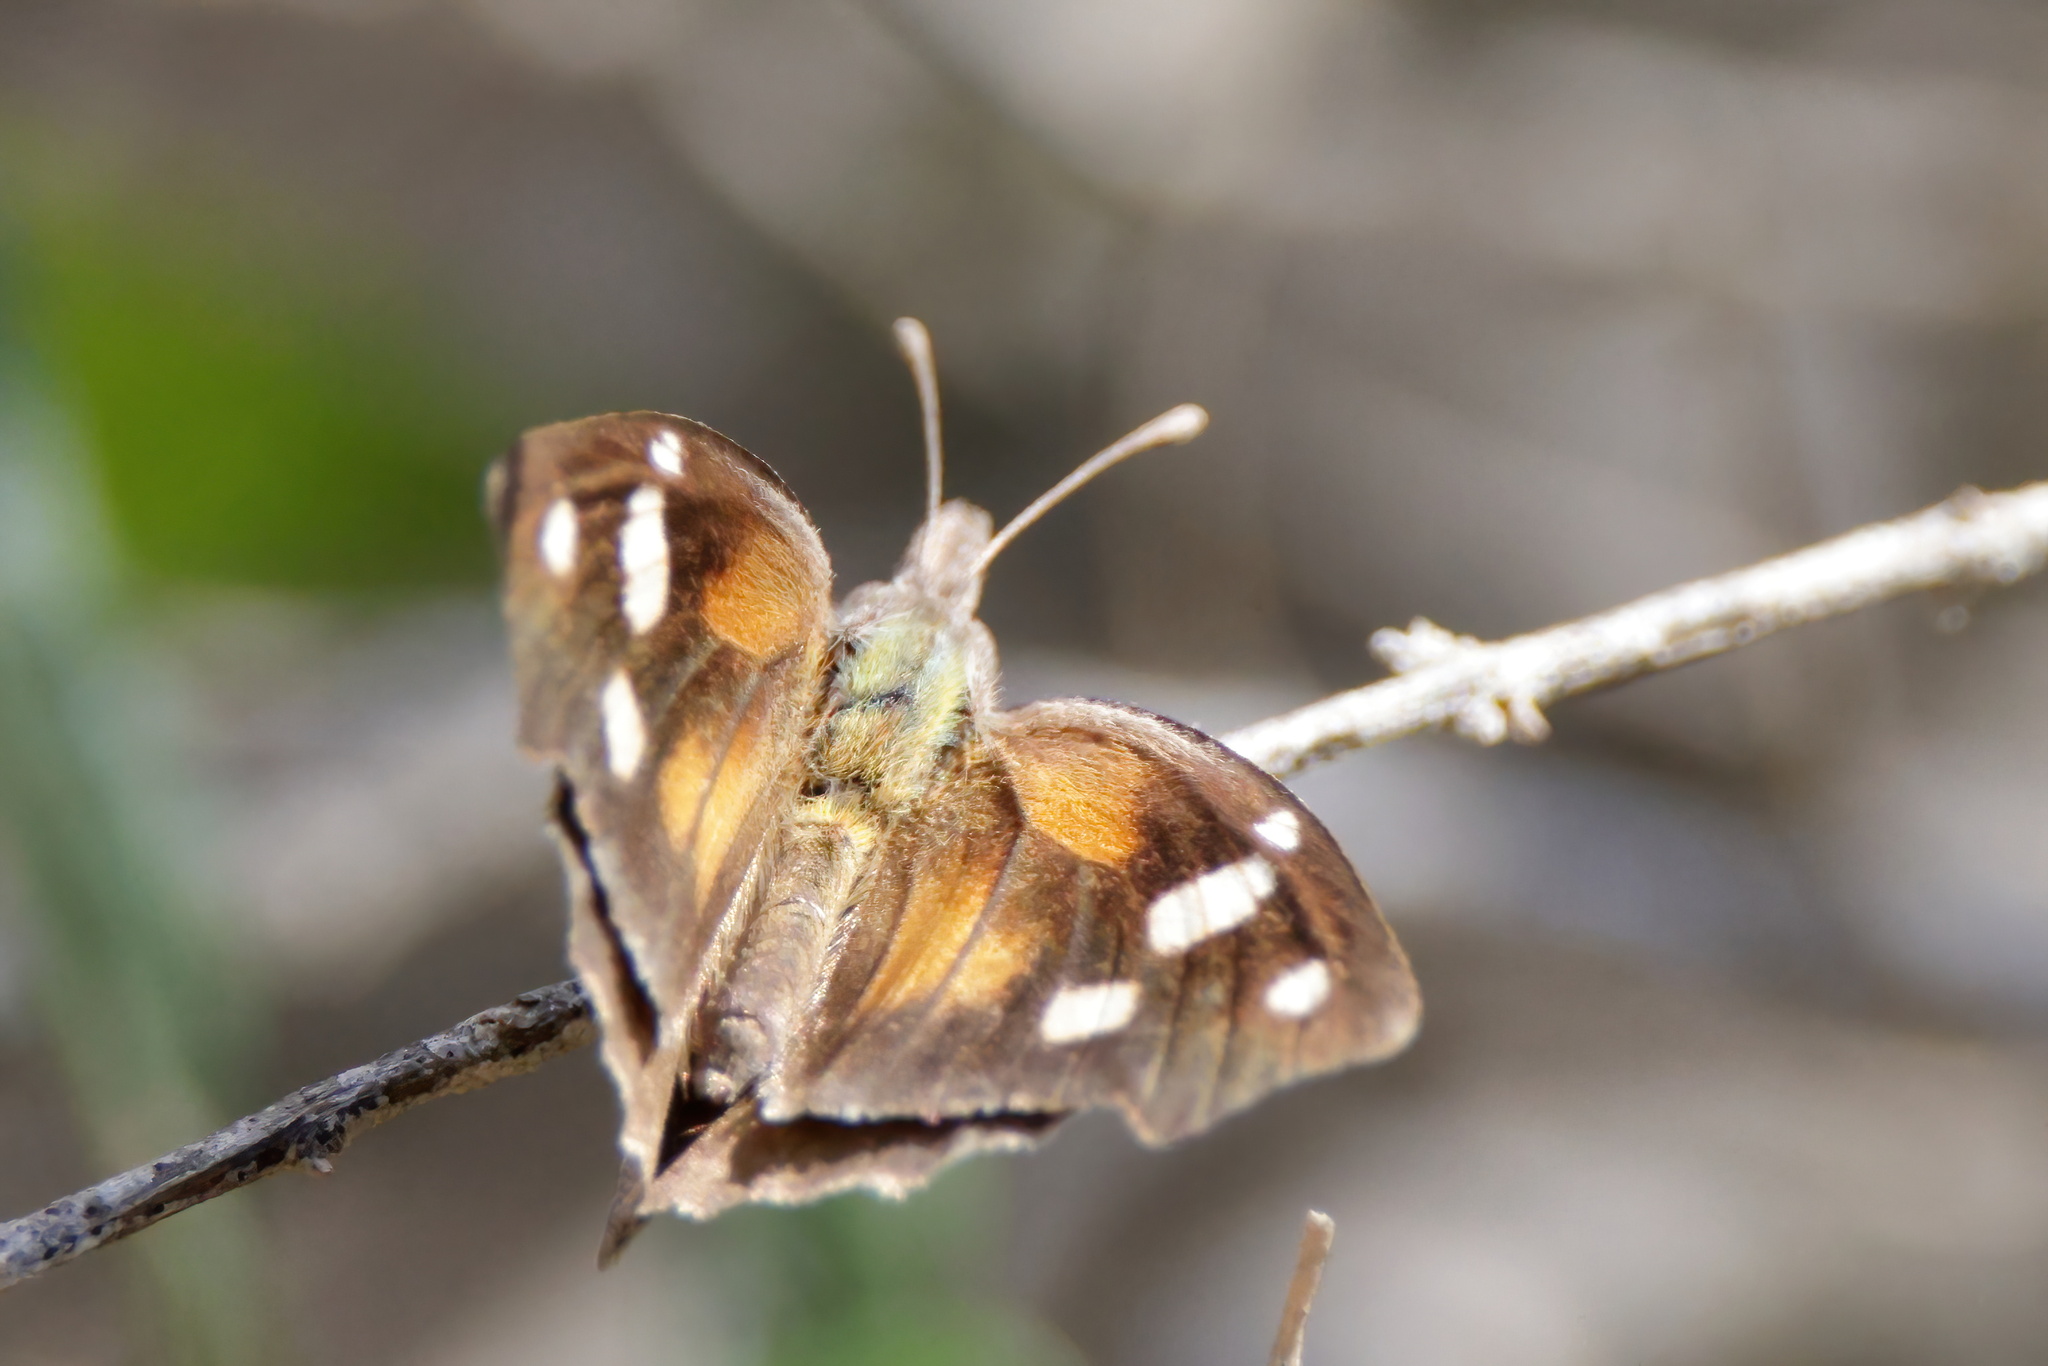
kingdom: Animalia
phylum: Arthropoda
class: Insecta
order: Lepidoptera
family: Nymphalidae
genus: Libytheana
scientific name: Libytheana carinenta
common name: American snout
